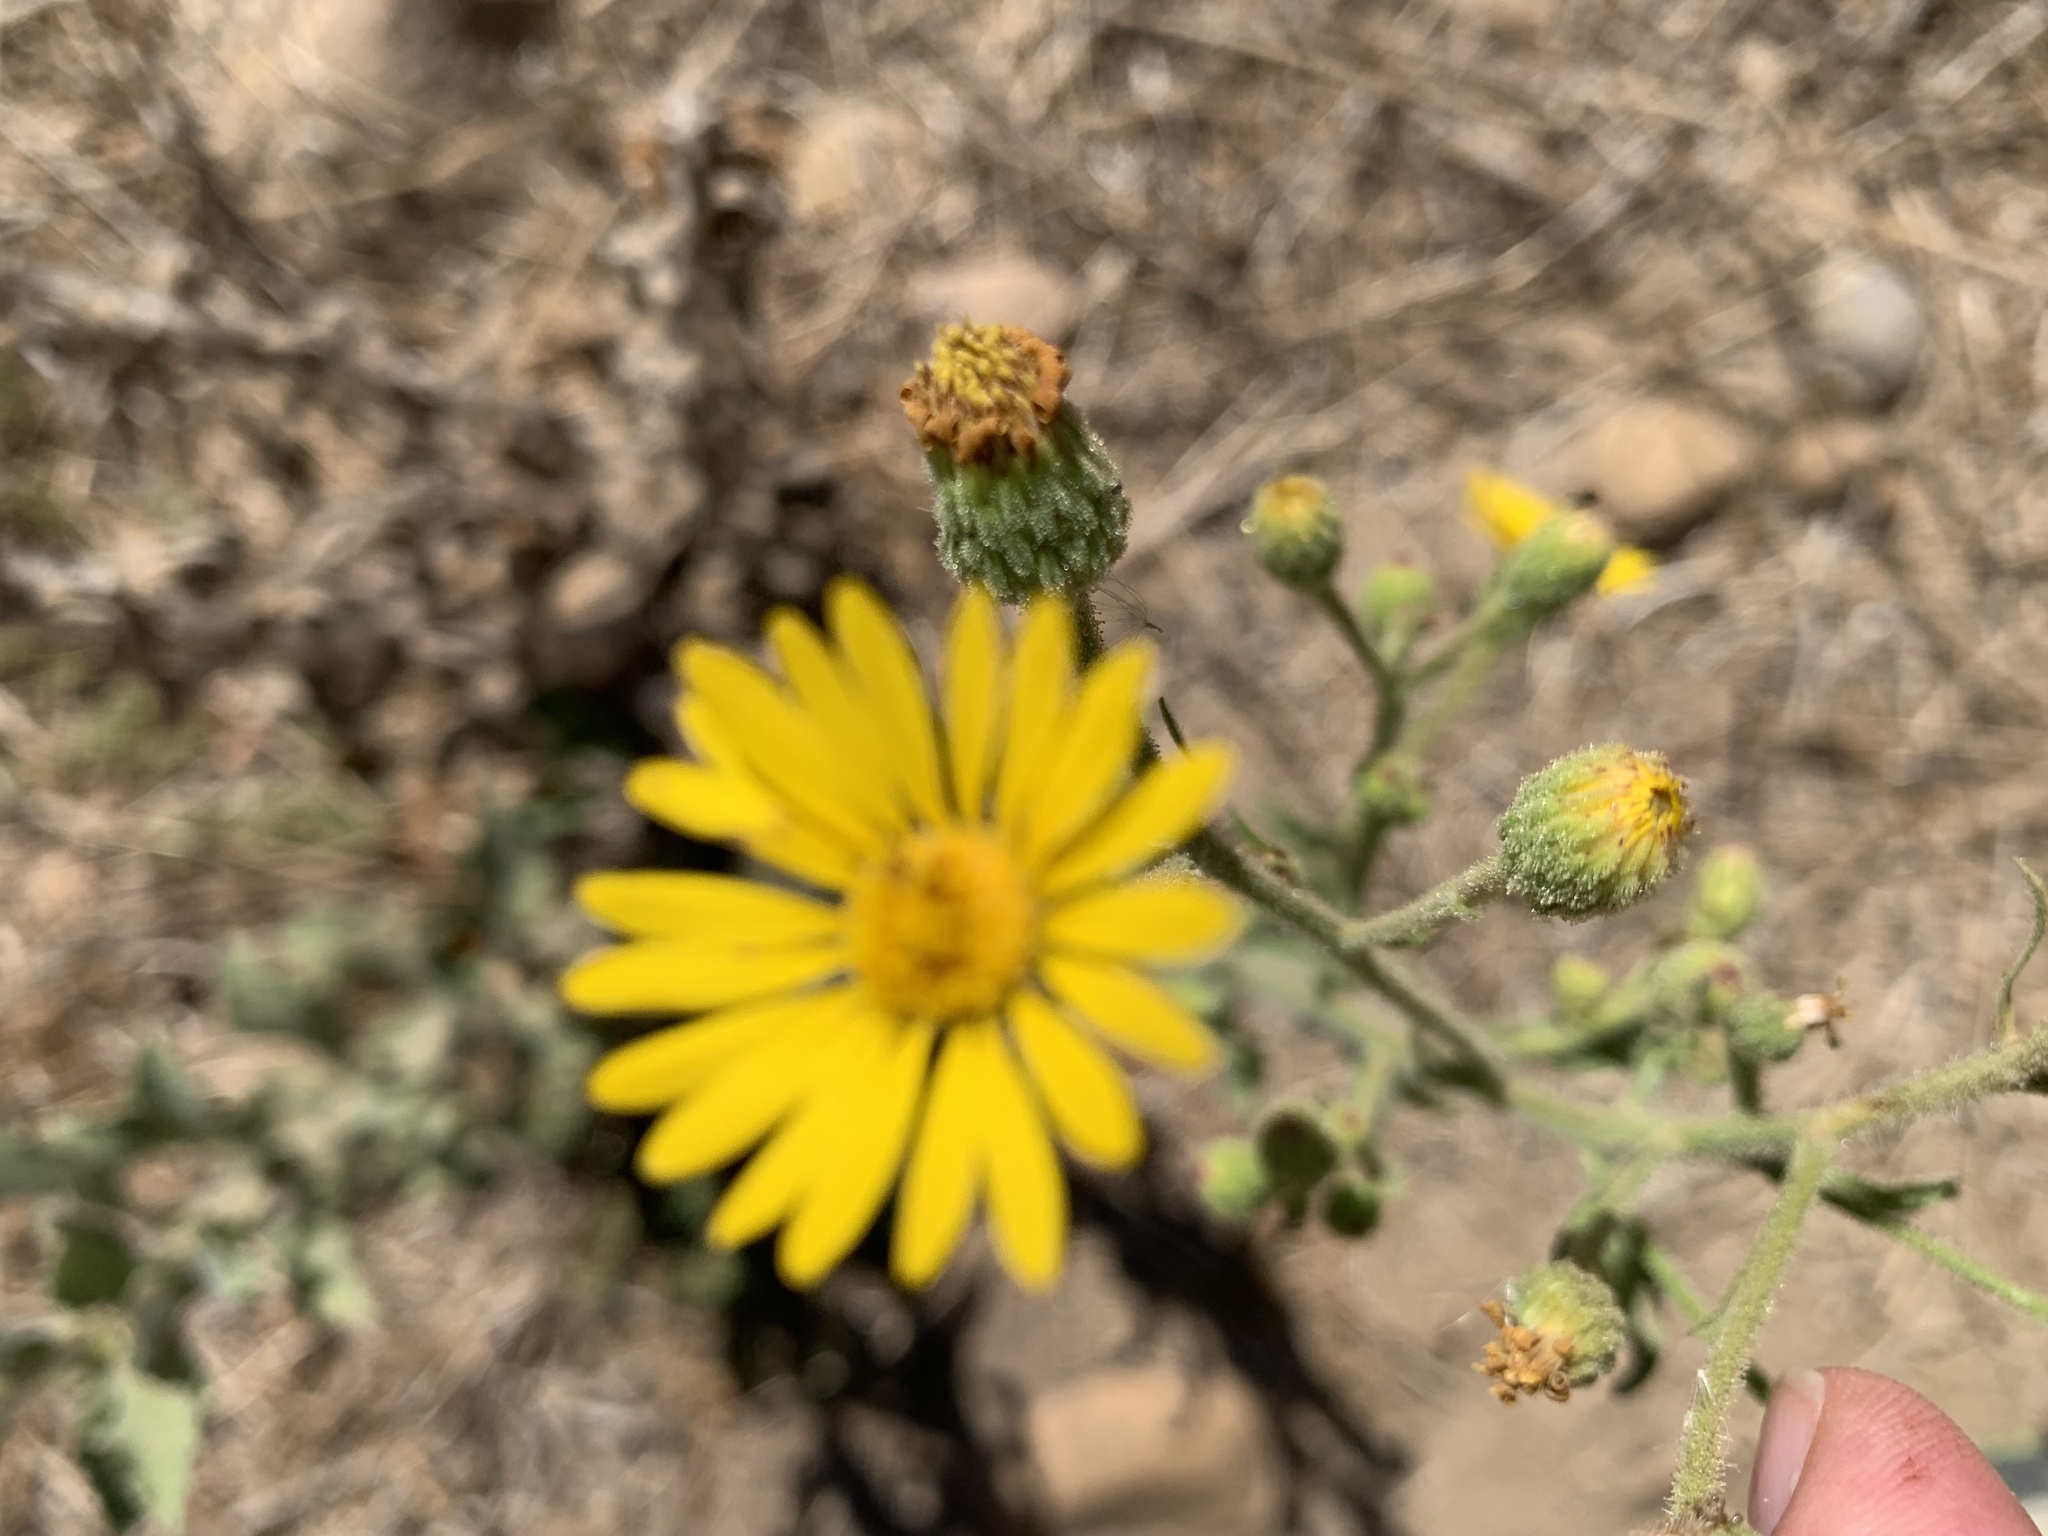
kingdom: Plantae
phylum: Tracheophyta
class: Magnoliopsida
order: Asterales
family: Asteraceae
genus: Heterotheca
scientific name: Heterotheca grandiflora
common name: Telegraphweed
